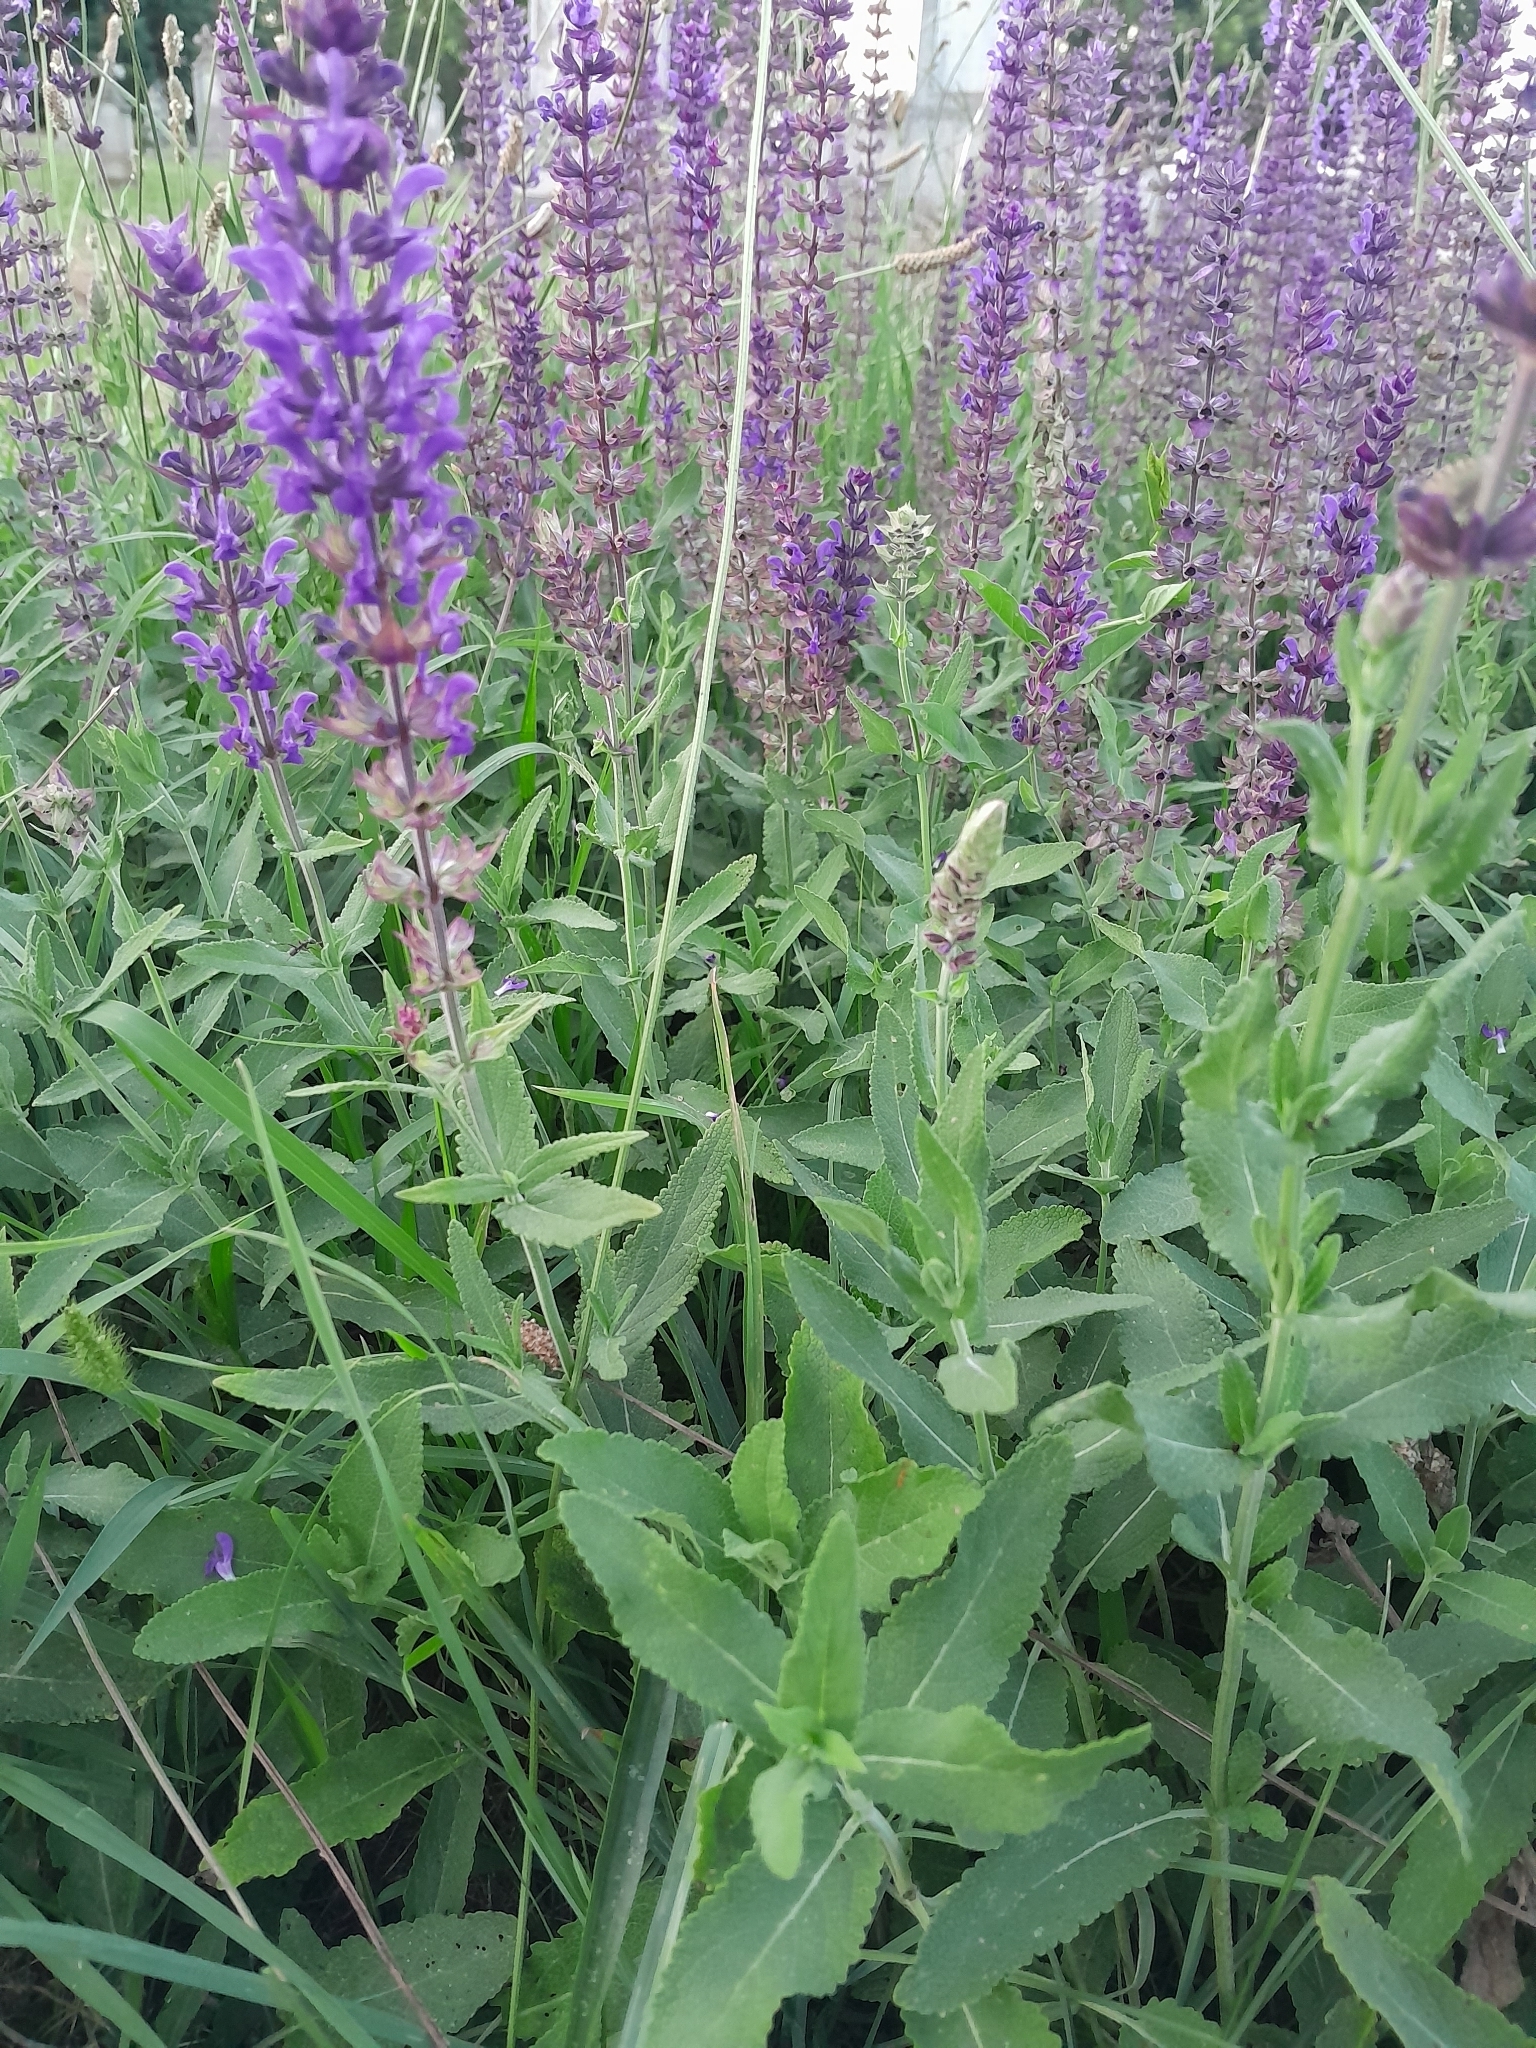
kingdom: Plantae
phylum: Tracheophyta
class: Magnoliopsida
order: Lamiales
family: Lamiaceae
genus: Salvia
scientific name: Salvia nemorosa
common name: Balkan clary
